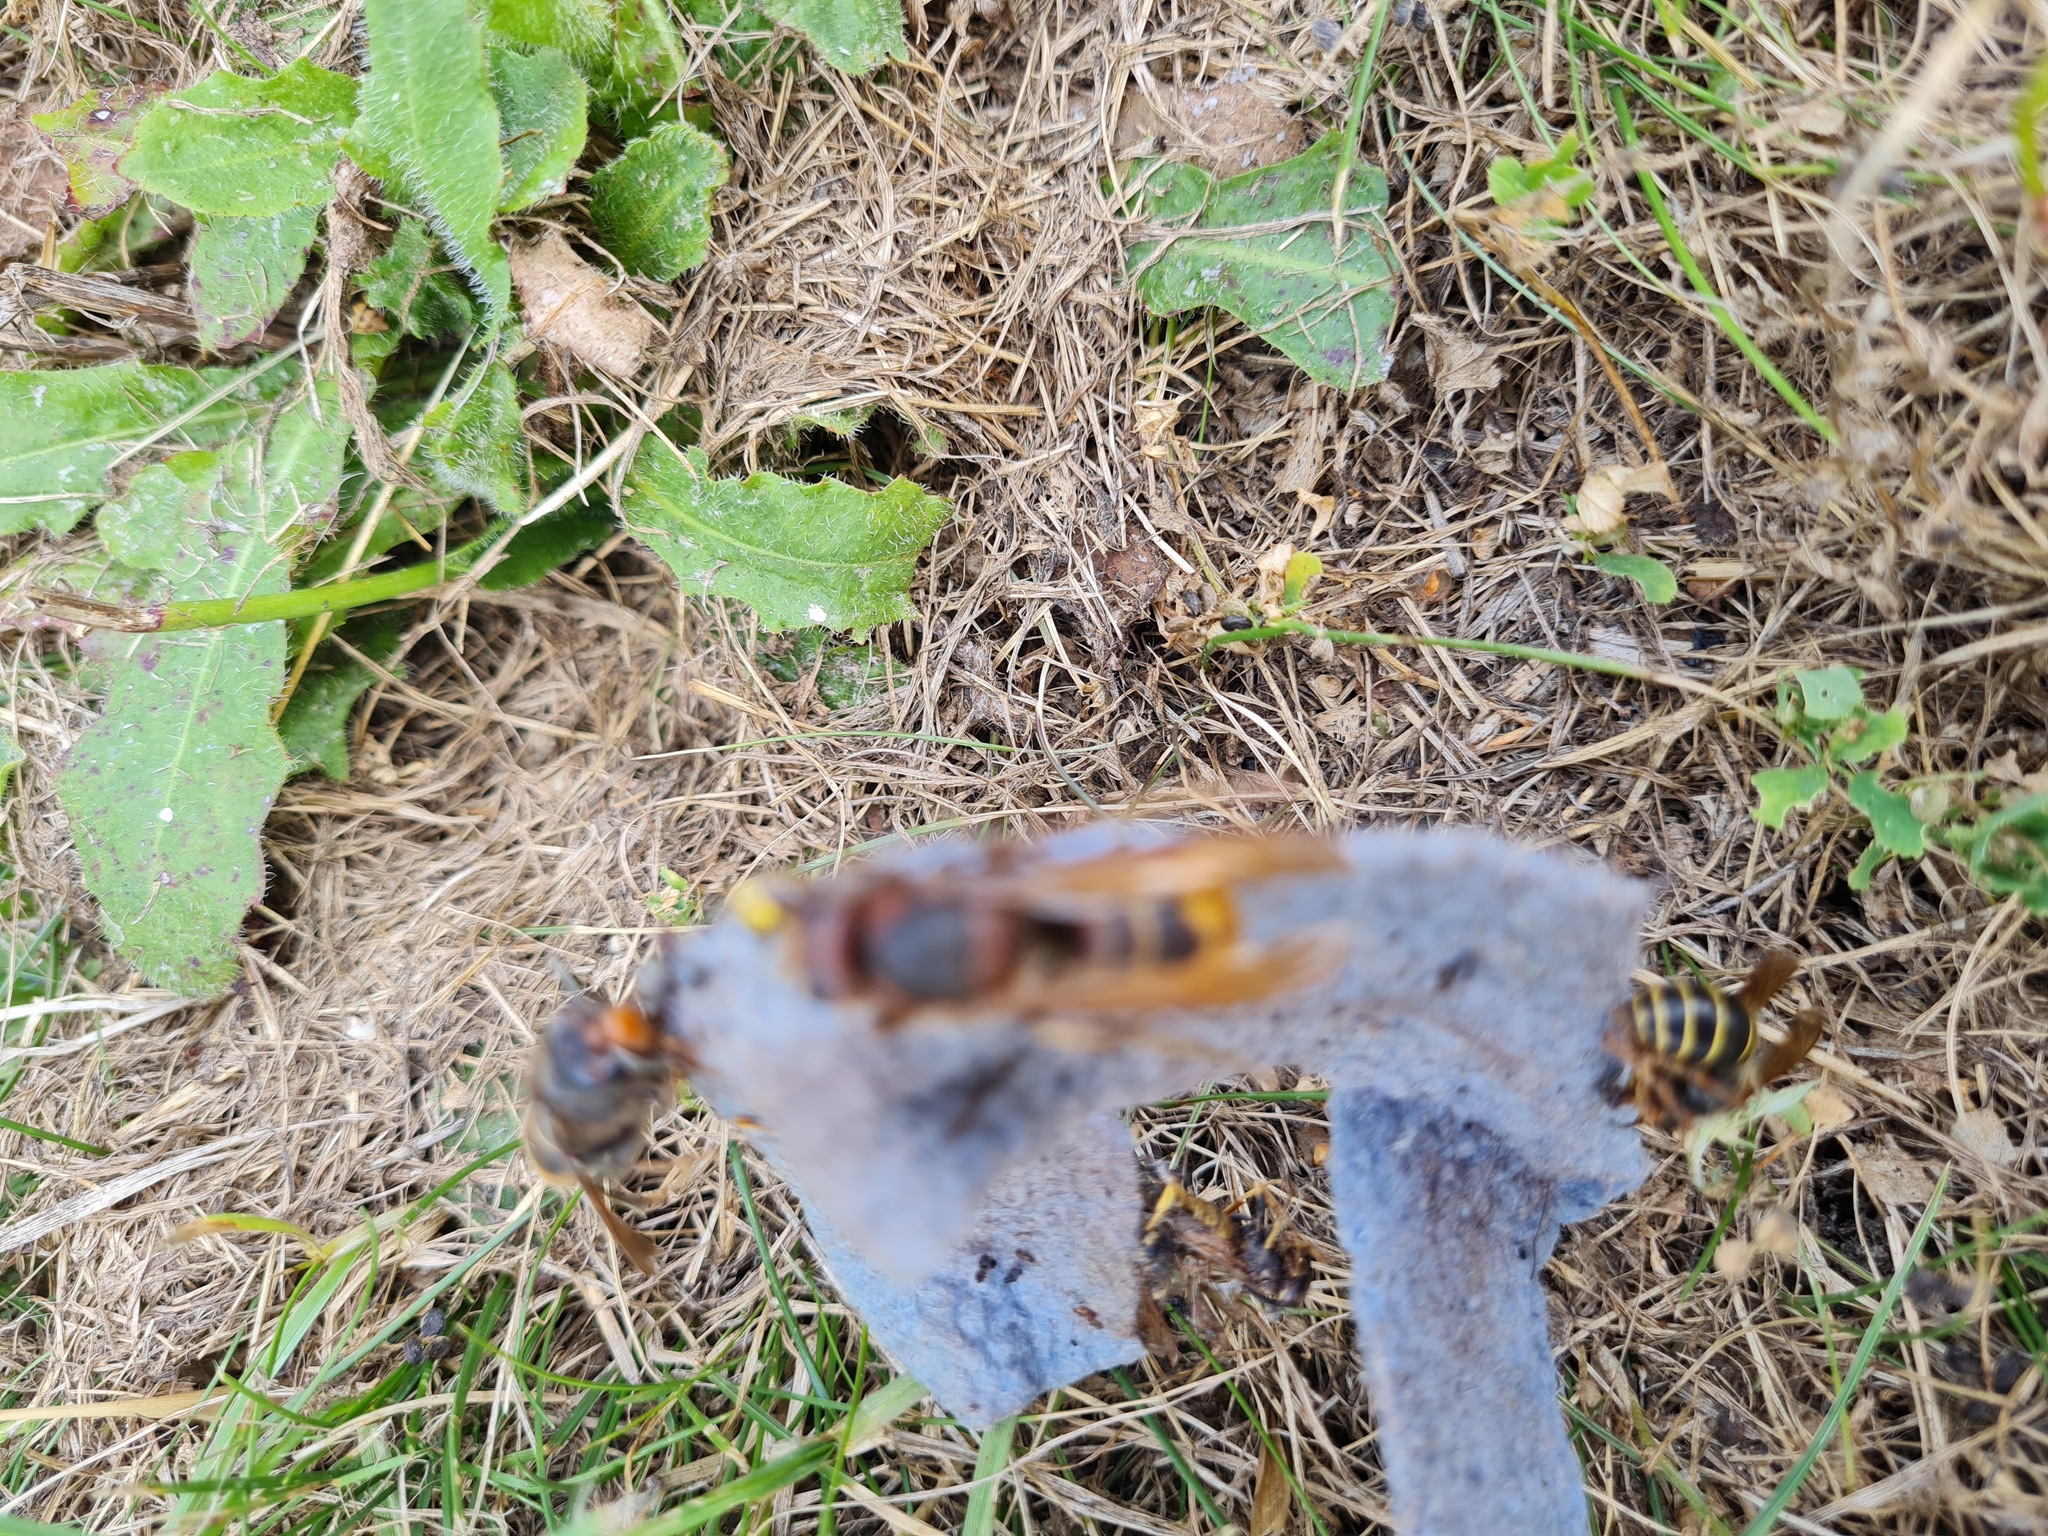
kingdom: Animalia
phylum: Arthropoda
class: Insecta
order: Hymenoptera
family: Vespidae
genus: Vespa
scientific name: Vespa velutina
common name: Asian hornet
